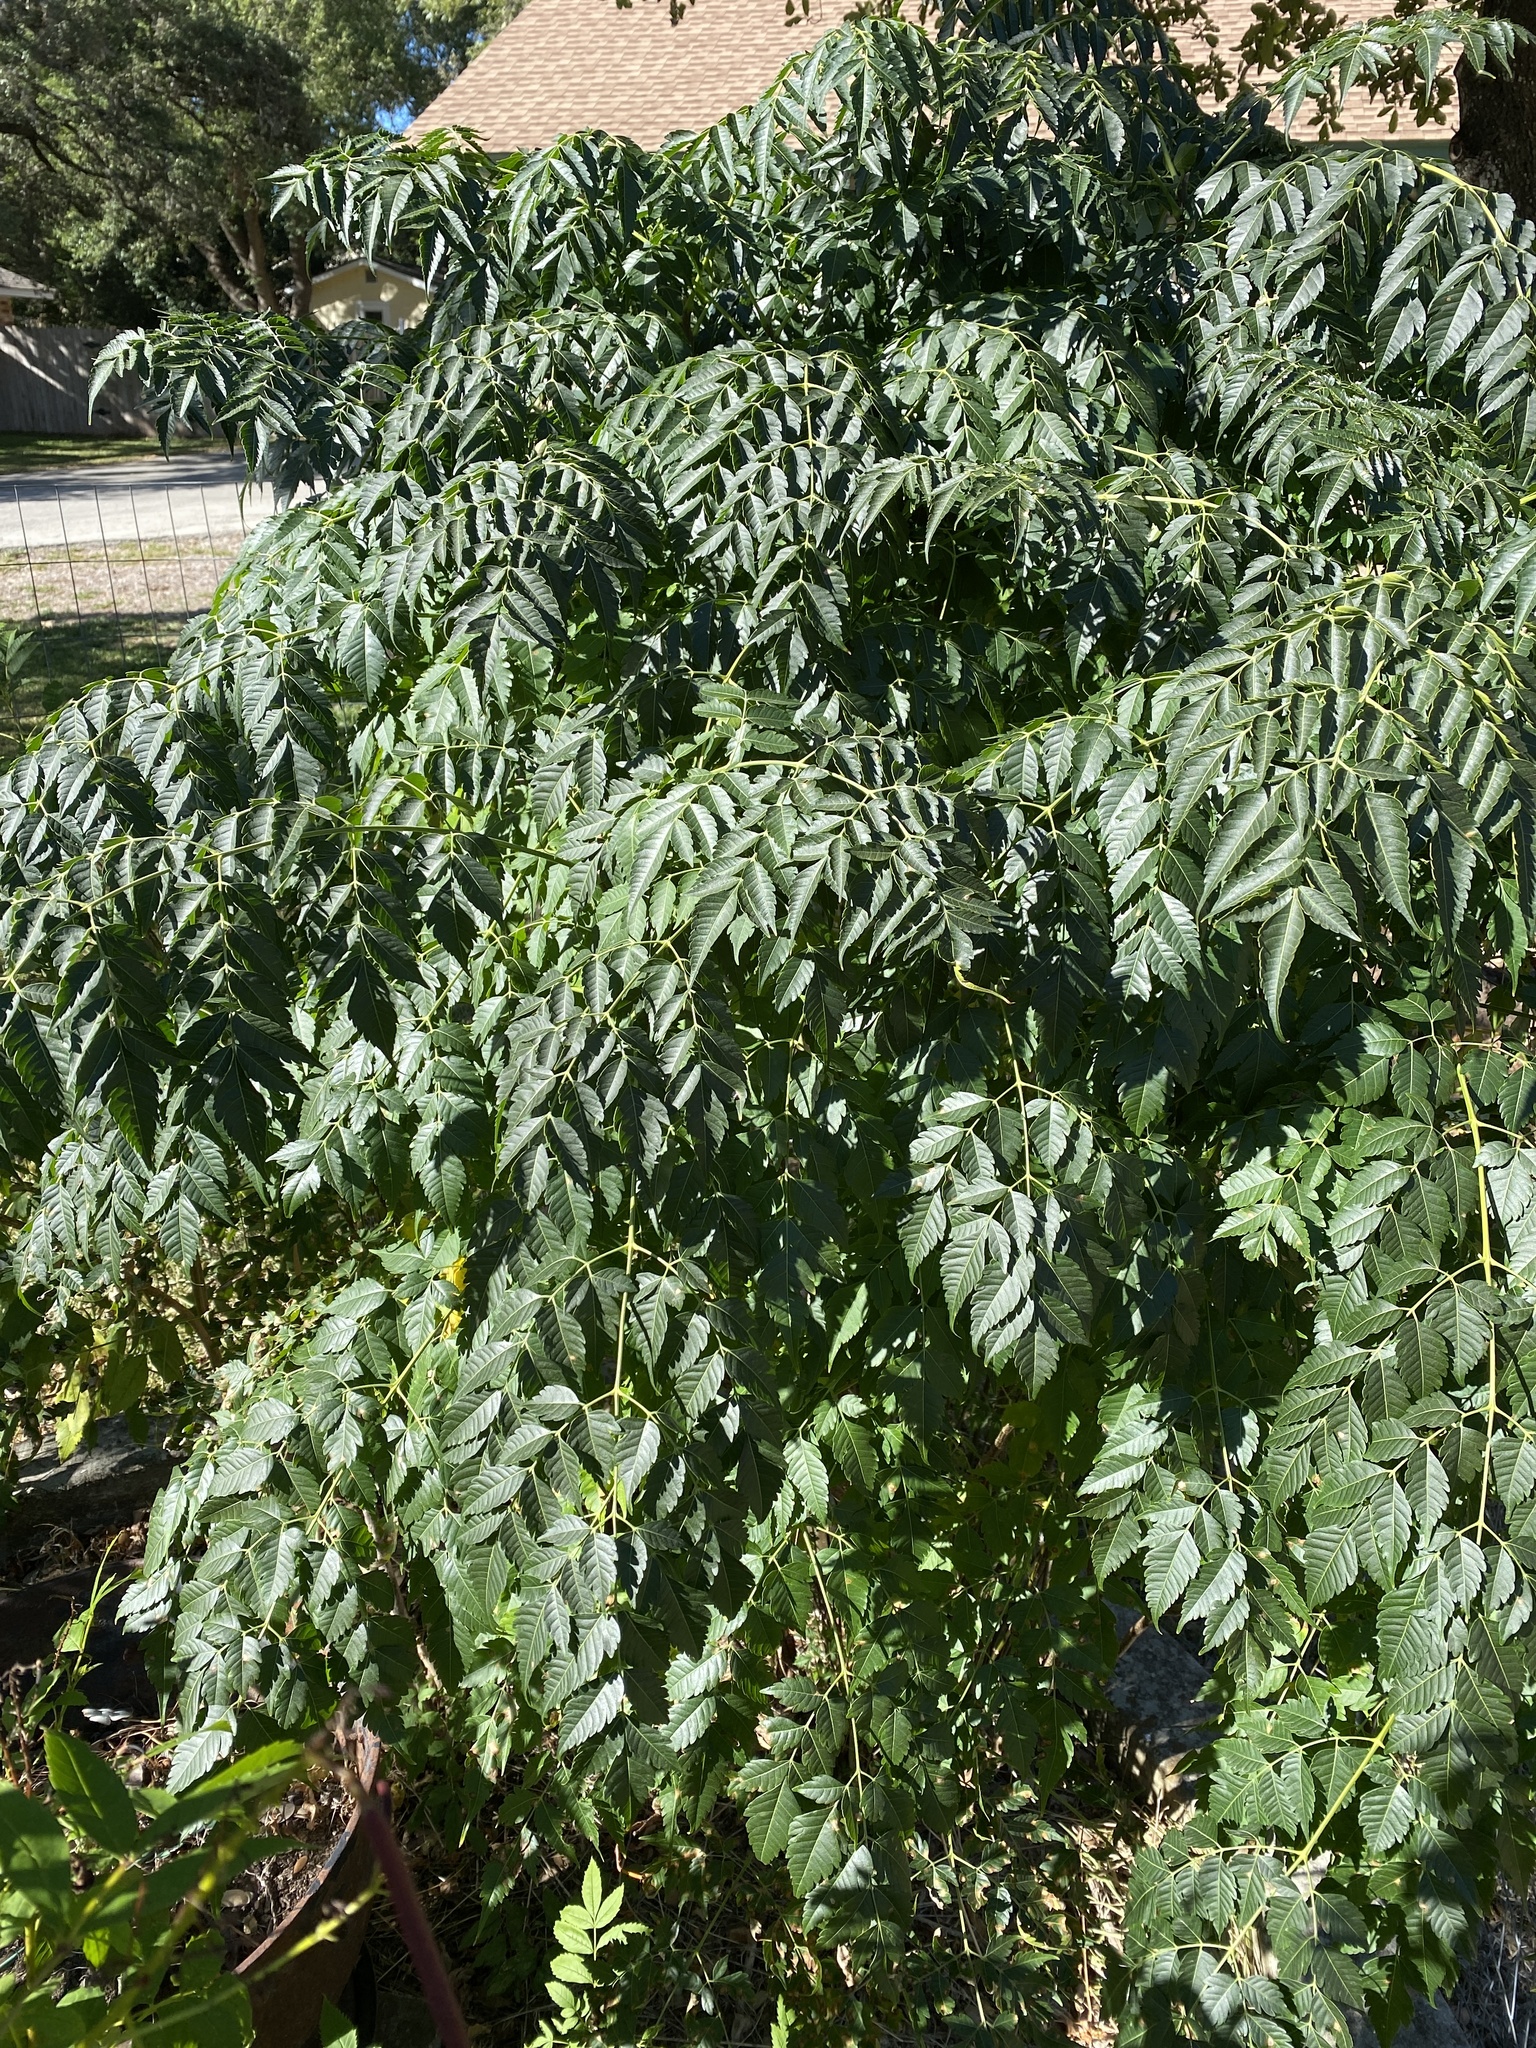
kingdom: Plantae
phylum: Tracheophyta
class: Magnoliopsida
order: Sapindales
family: Meliaceae
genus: Melia
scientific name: Melia azedarach
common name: Chinaberrytree
